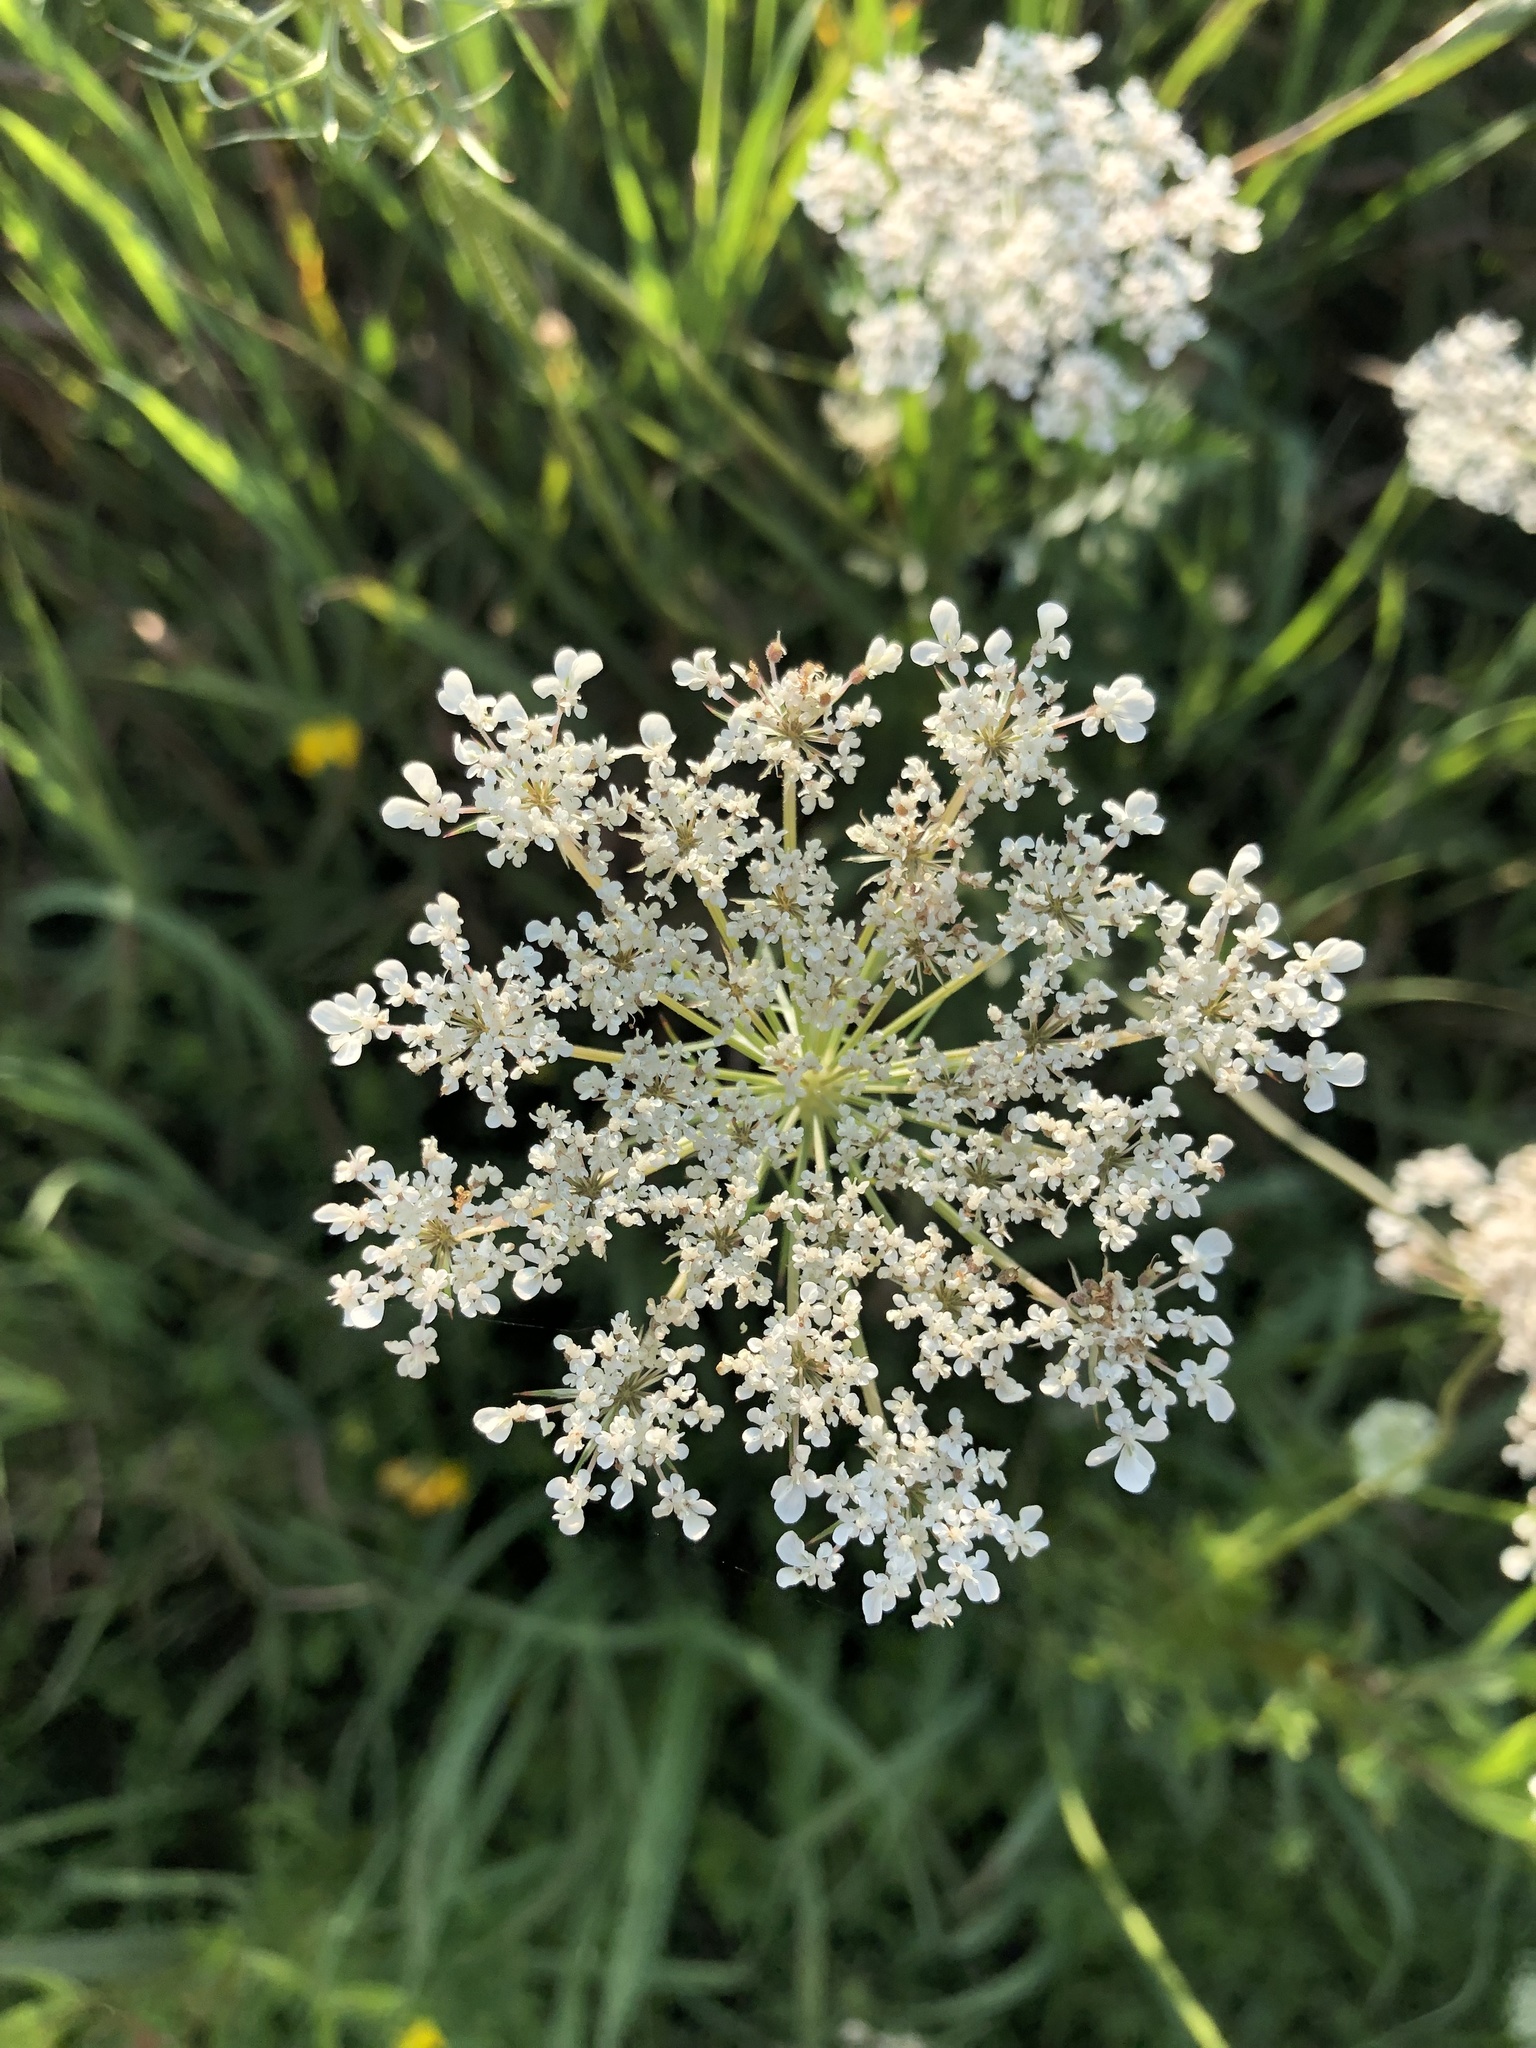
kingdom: Plantae
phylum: Tracheophyta
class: Magnoliopsida
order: Apiales
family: Apiaceae
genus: Daucus
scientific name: Daucus carota
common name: Wild carrot
